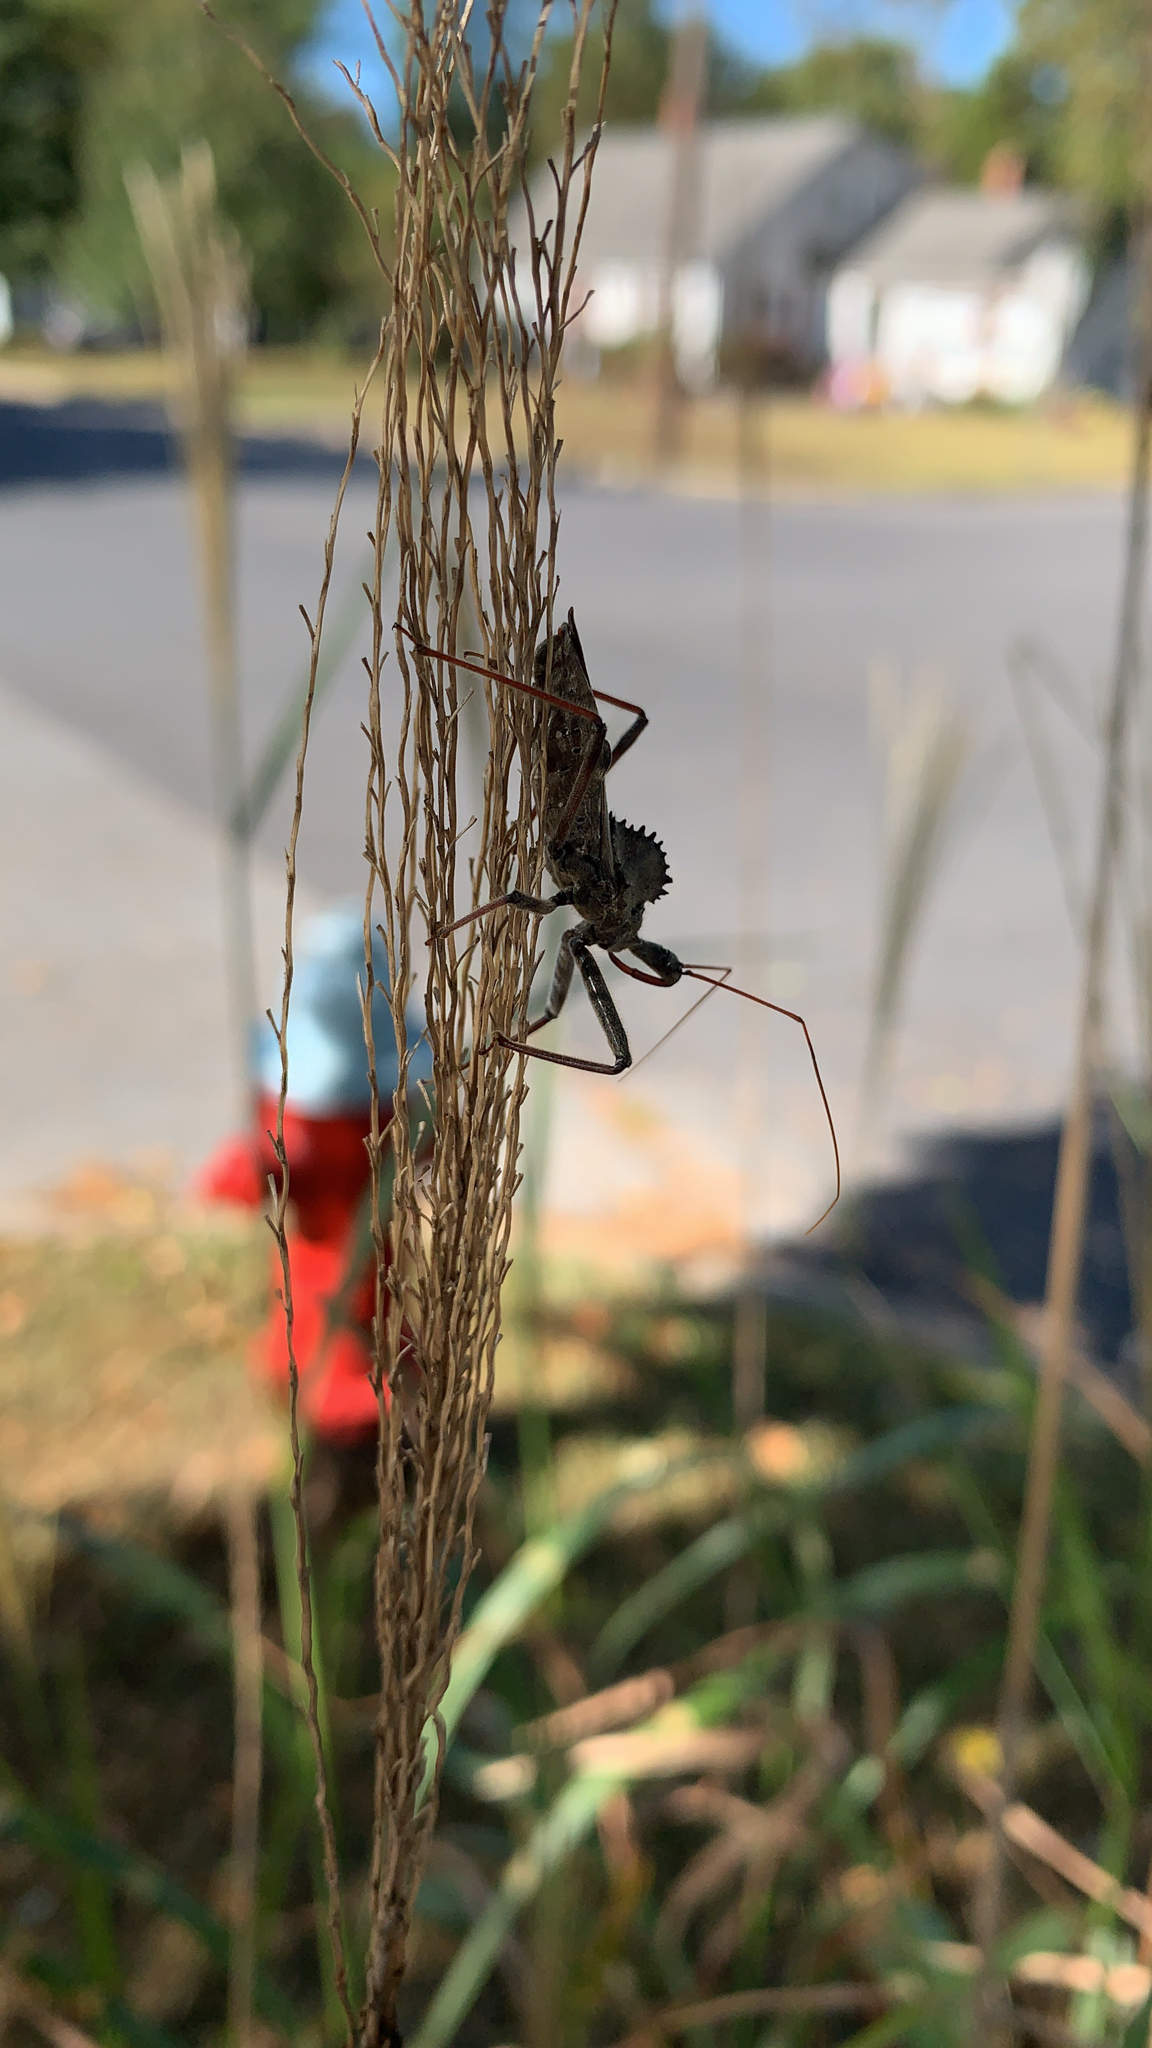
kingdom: Animalia
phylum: Arthropoda
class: Insecta
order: Hemiptera
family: Reduviidae
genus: Arilus
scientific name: Arilus cristatus
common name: North american wheel bug
